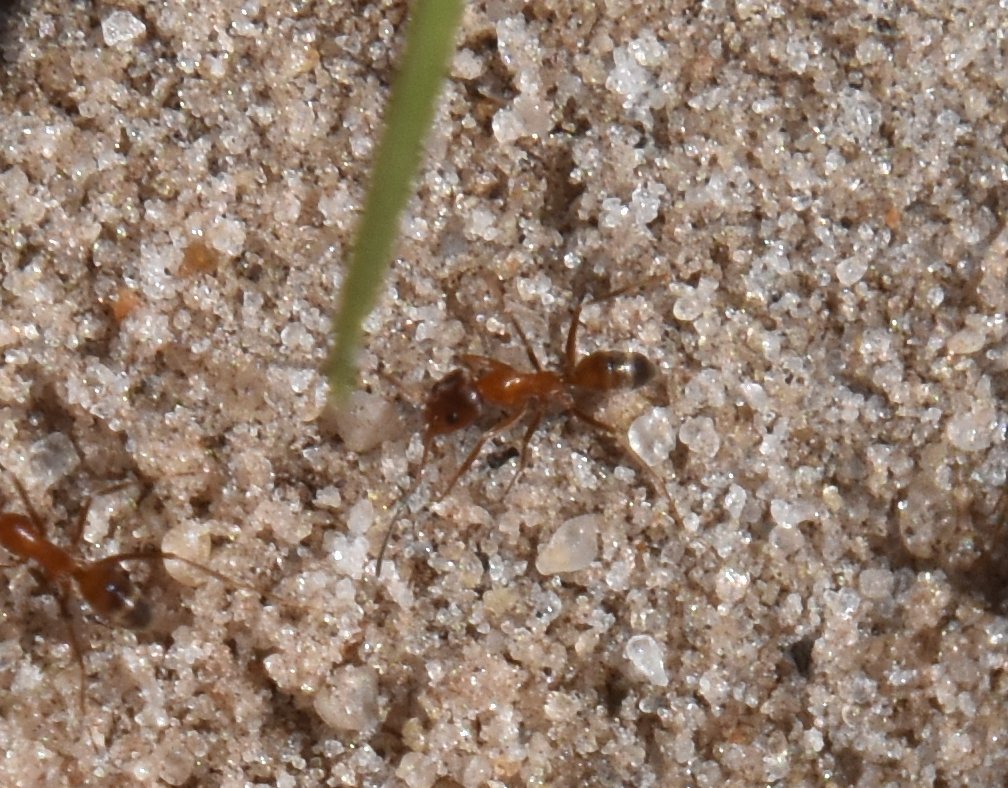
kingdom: Animalia
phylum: Arthropoda
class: Insecta
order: Hymenoptera
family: Formicidae
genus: Dorymyrmex
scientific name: Dorymyrmex bureni
